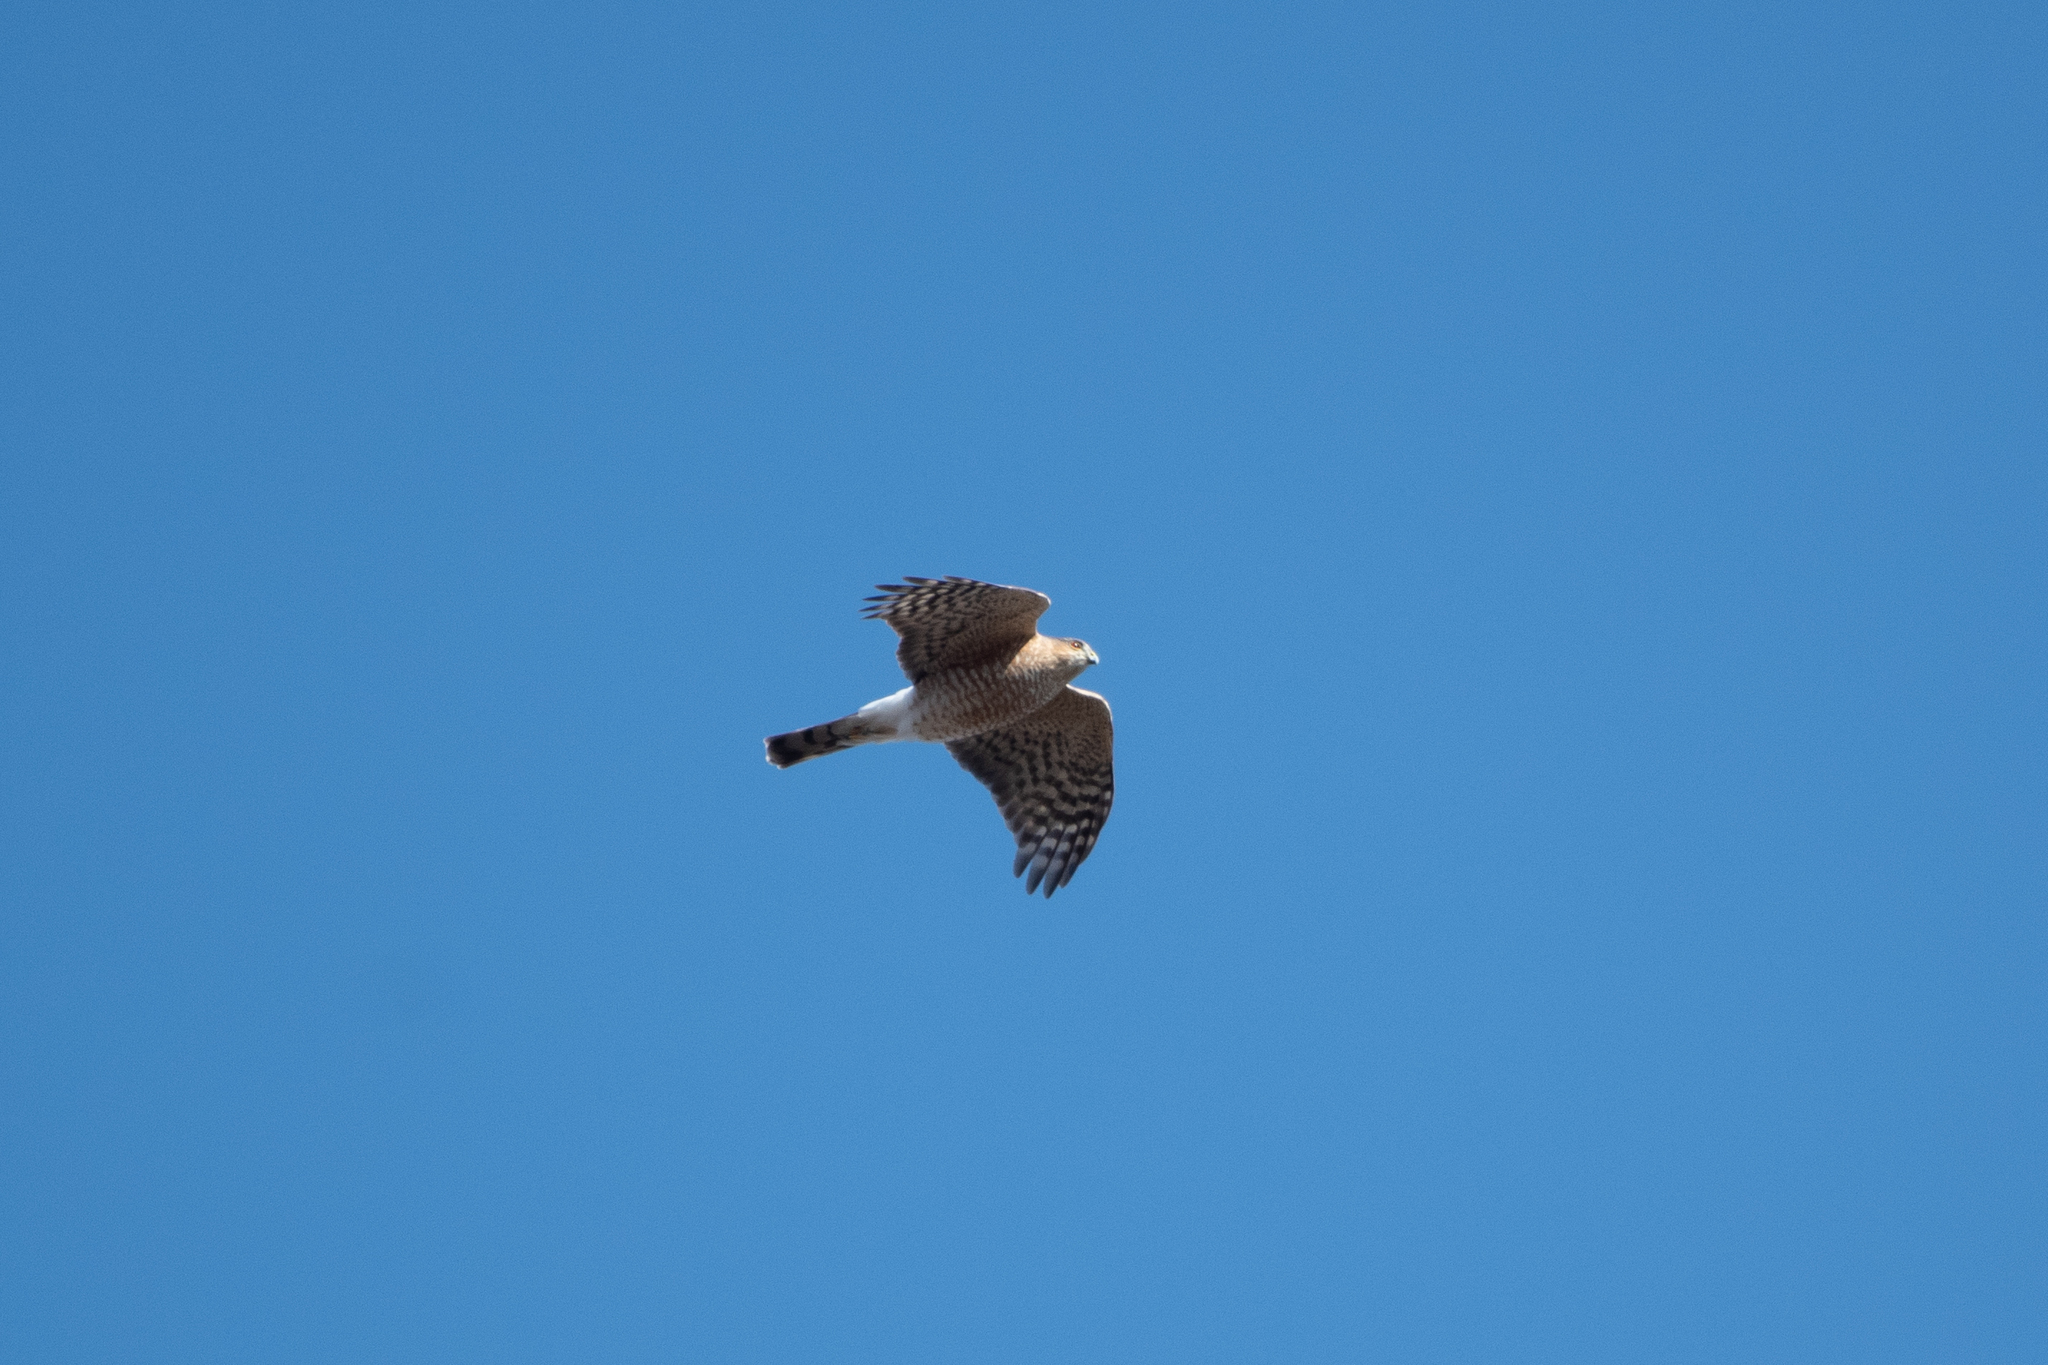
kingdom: Animalia
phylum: Chordata
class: Aves
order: Accipitriformes
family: Accipitridae
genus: Accipiter
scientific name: Accipiter striatus
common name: Sharp-shinned hawk
